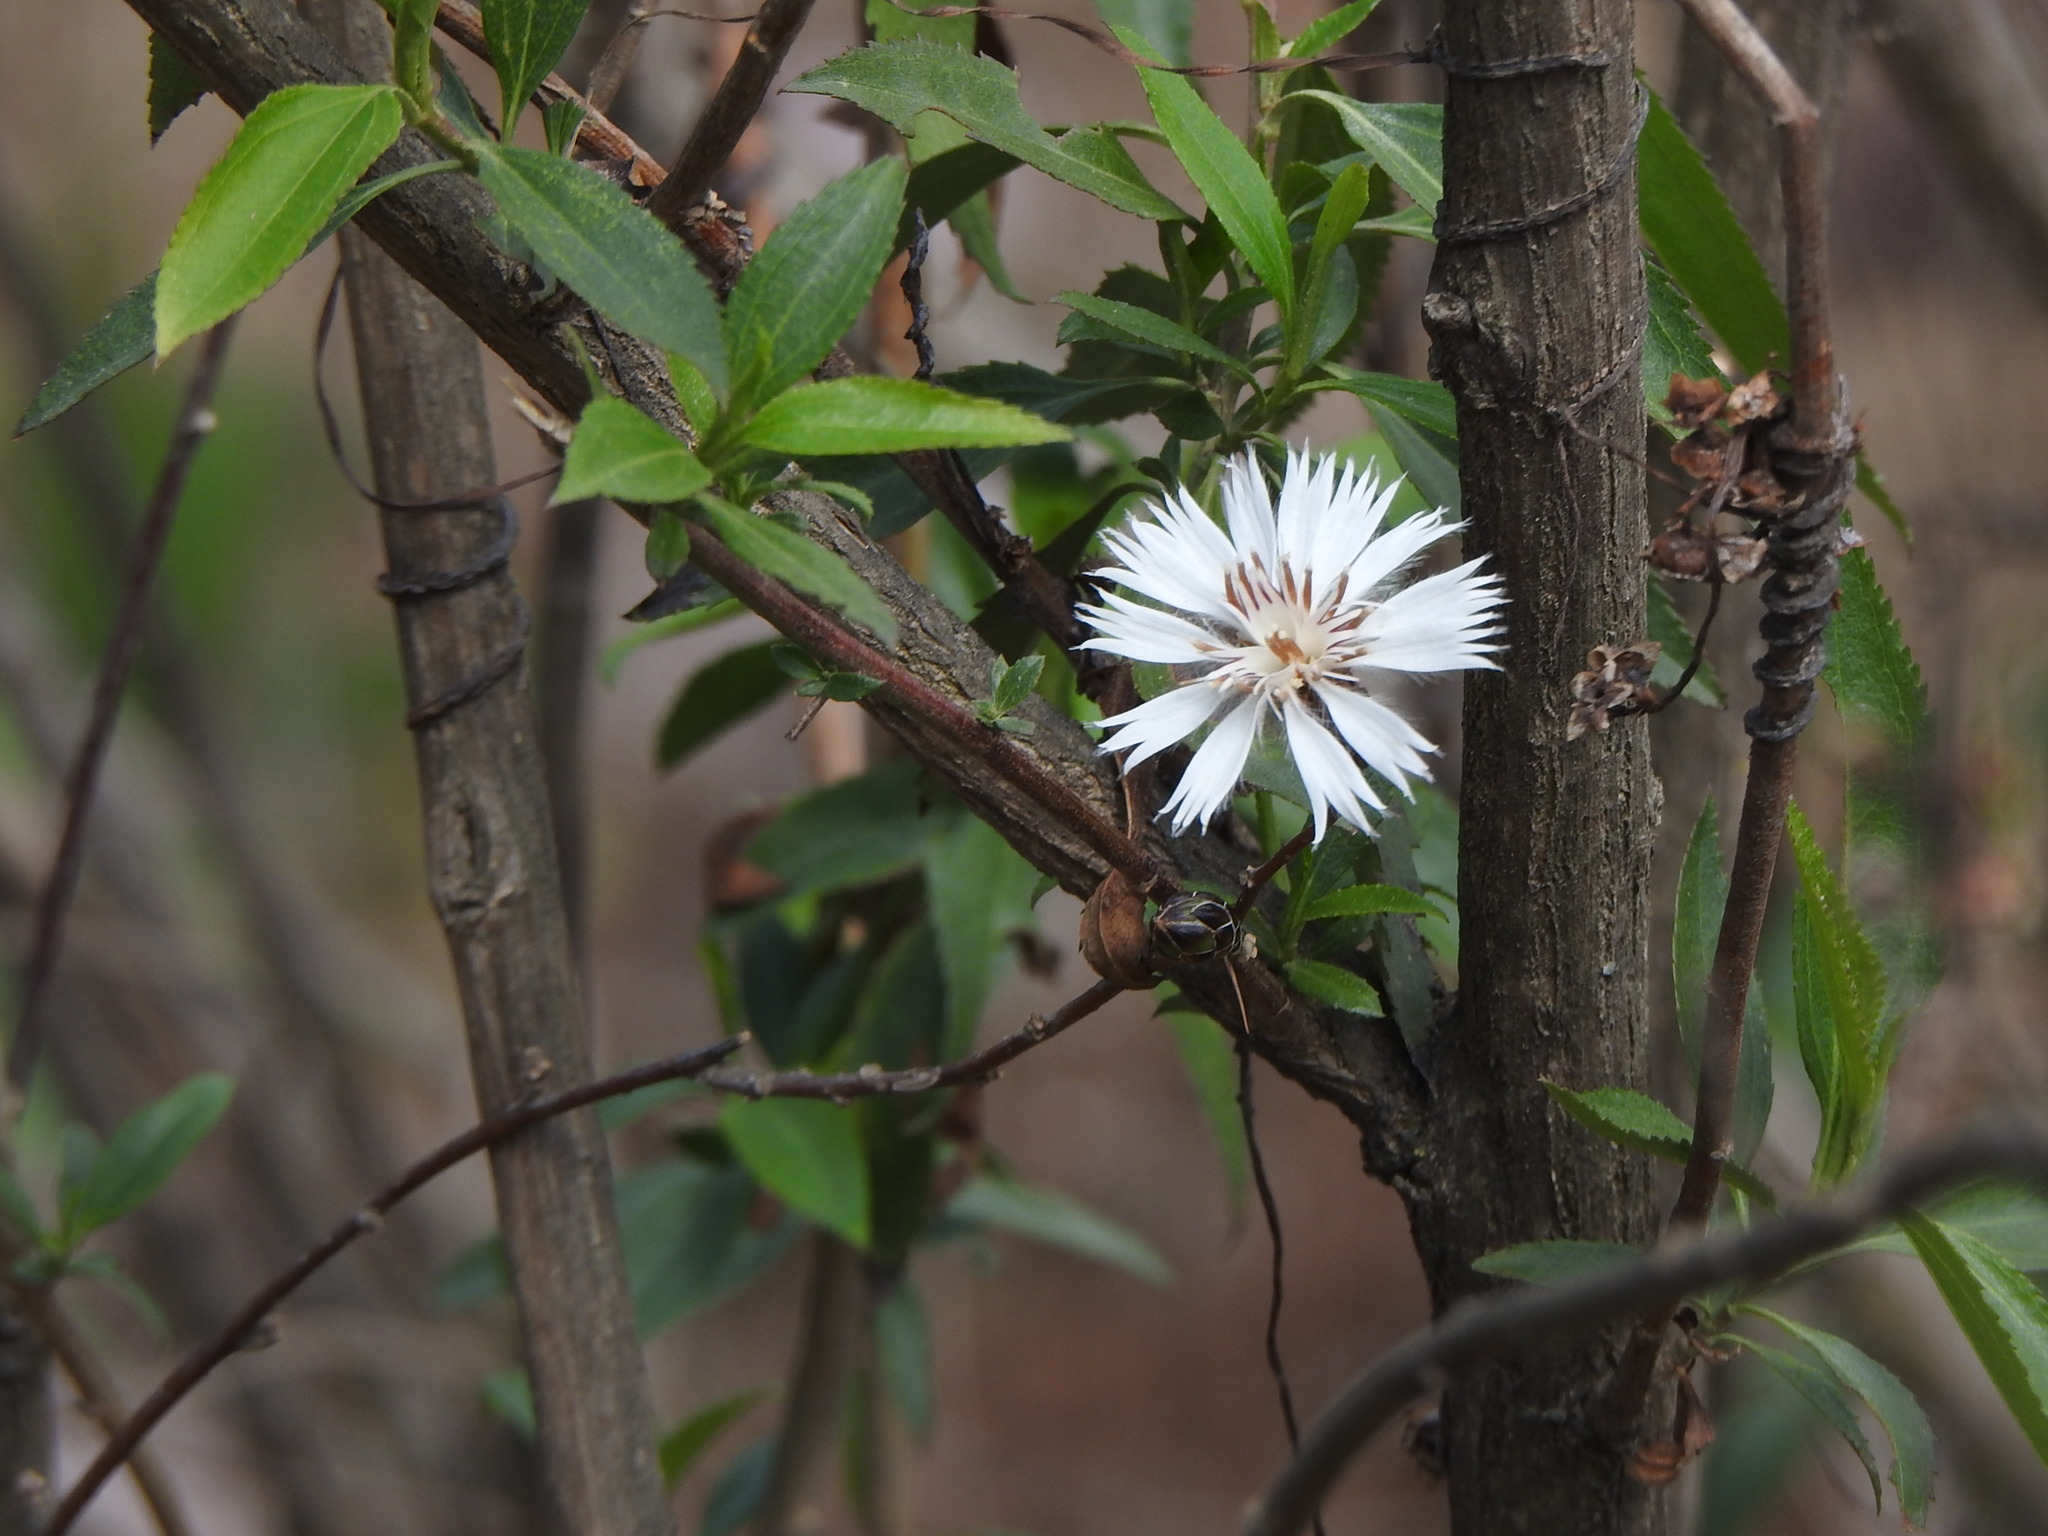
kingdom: Plantae
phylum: Tracheophyta
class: Magnoliopsida
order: Asterales
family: Asteraceae
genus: Barnadesia
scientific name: Barnadesia odorata
